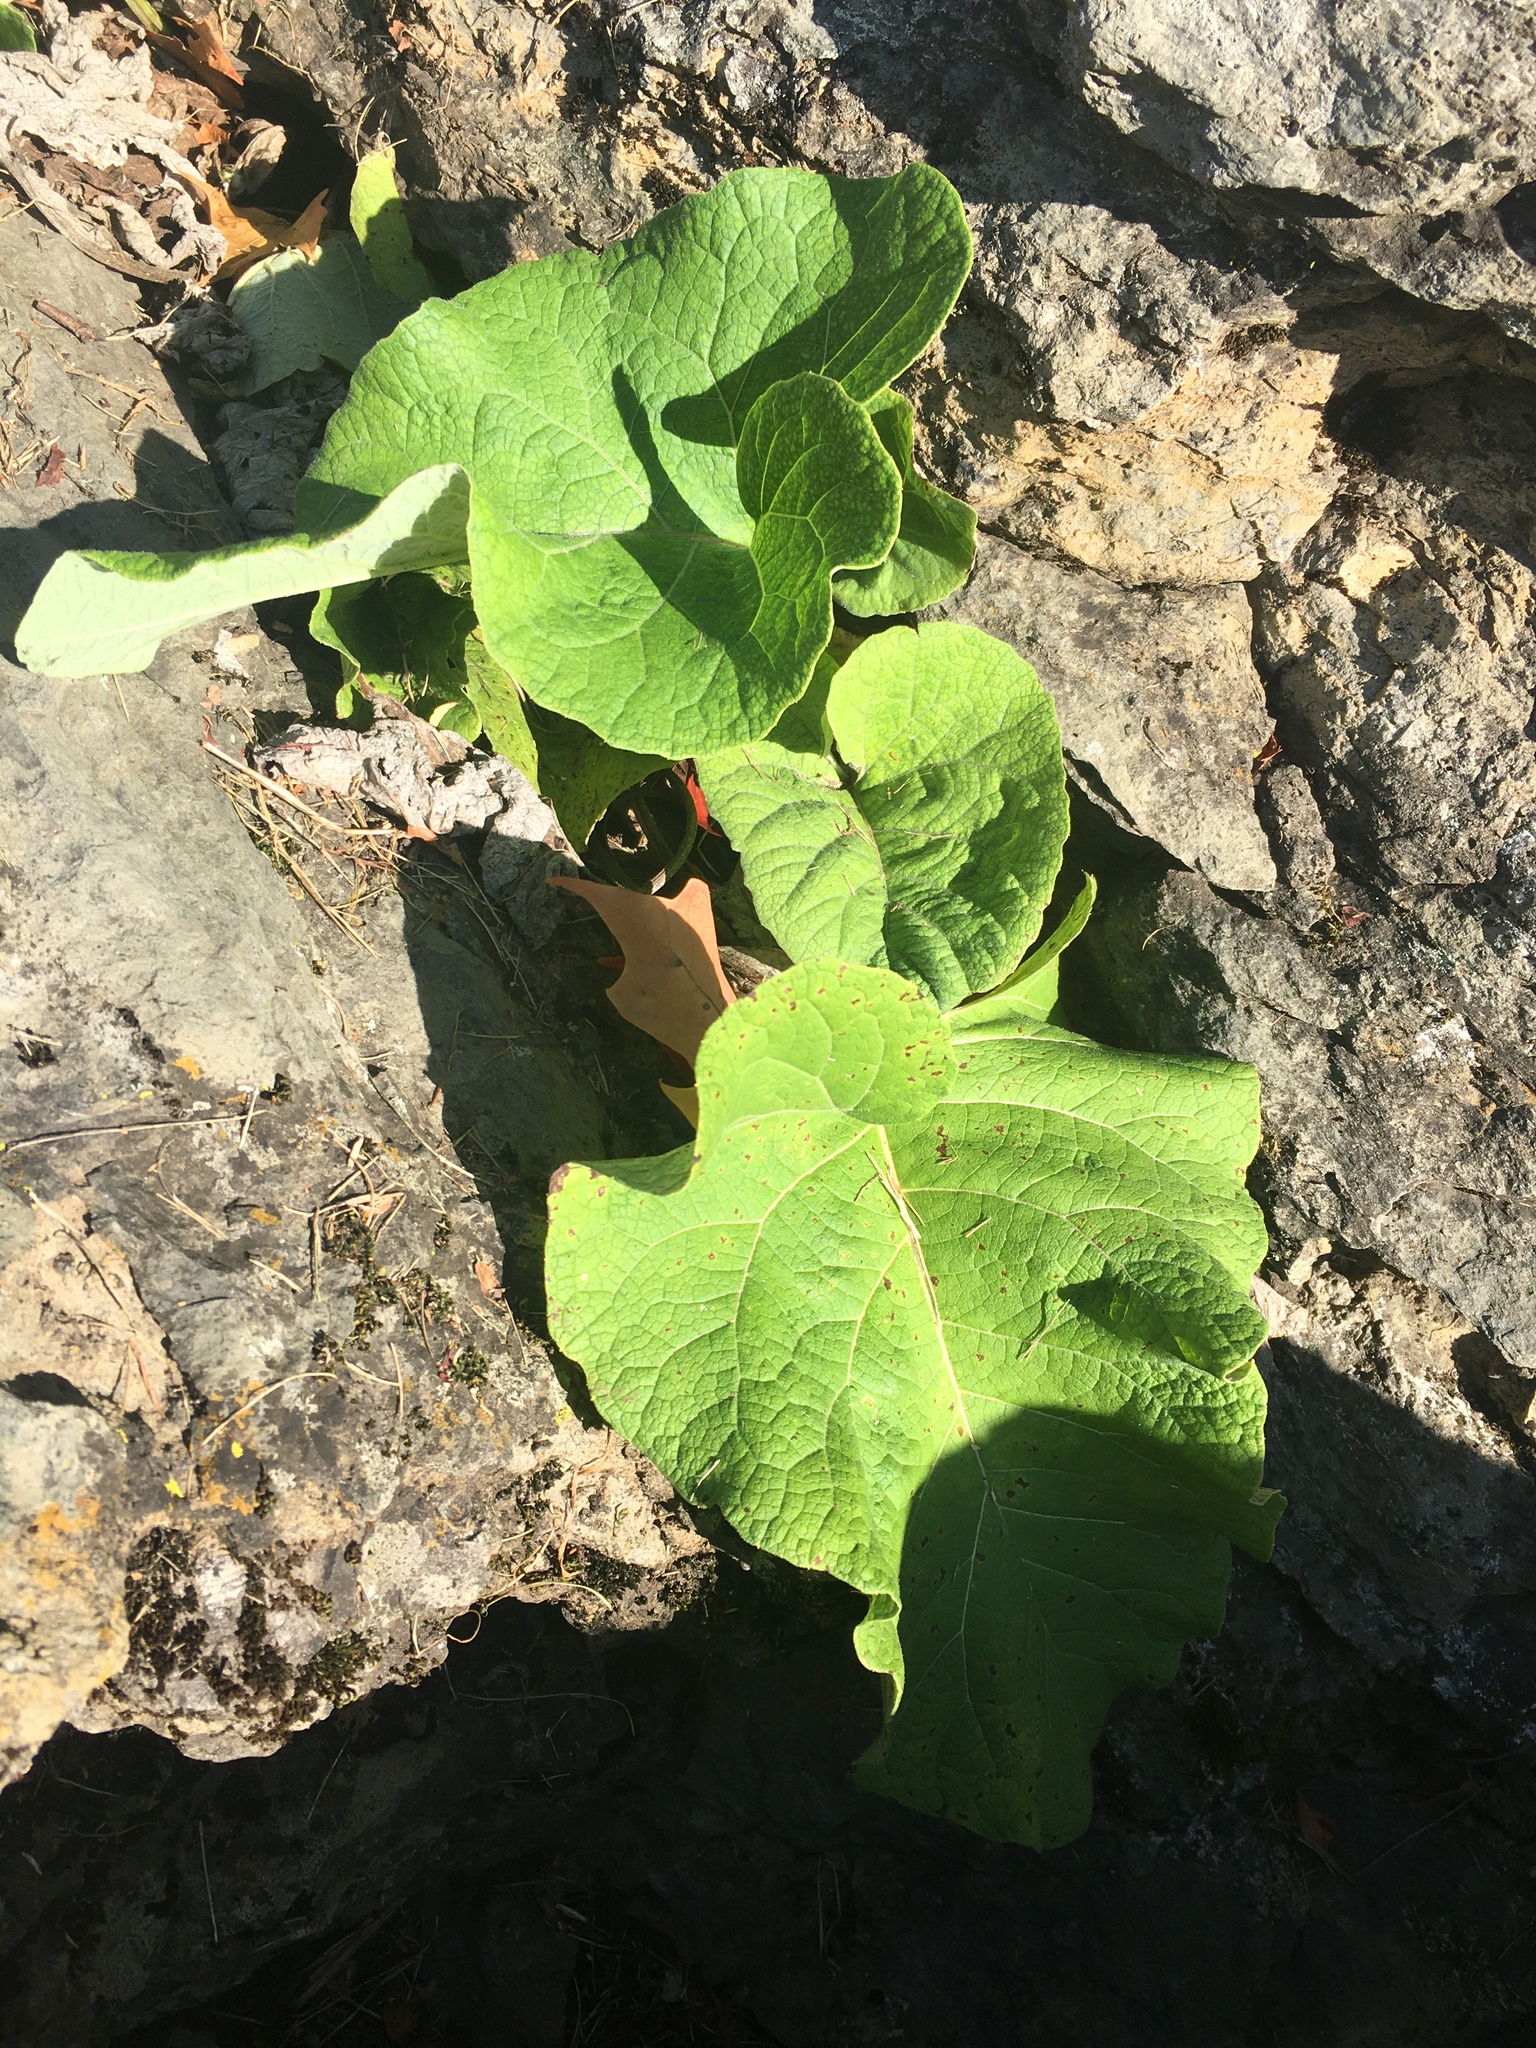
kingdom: Plantae
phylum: Tracheophyta
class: Magnoliopsida
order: Asterales
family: Asteraceae
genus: Arctium
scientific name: Arctium
